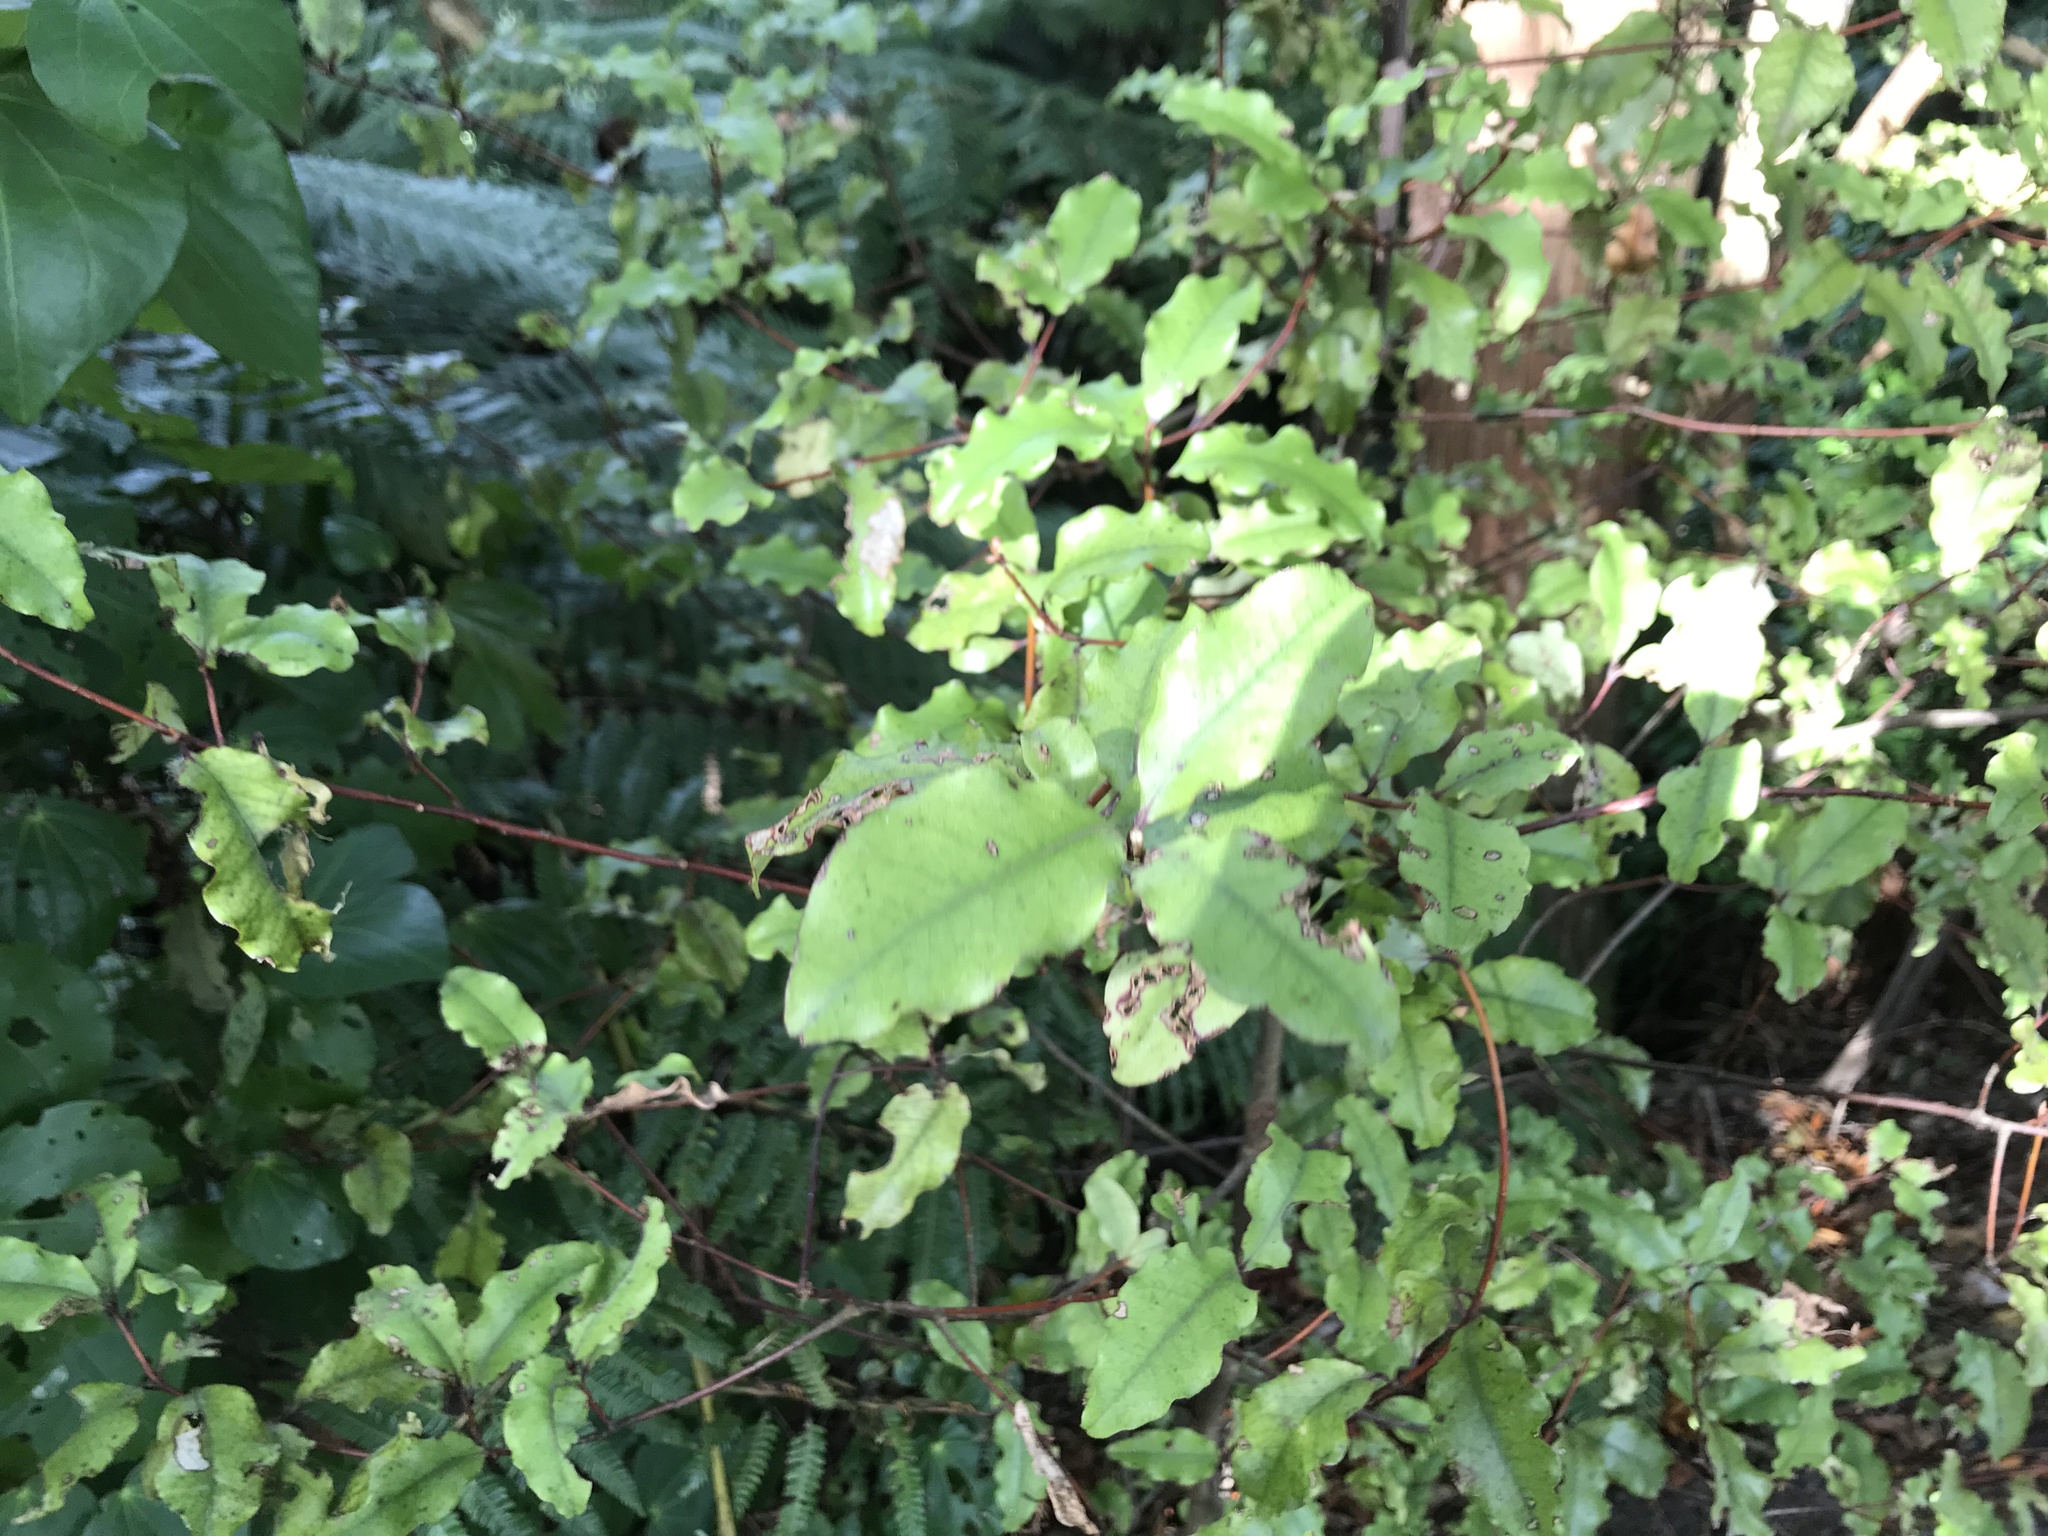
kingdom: Plantae
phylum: Tracheophyta
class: Magnoliopsida
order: Ericales
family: Primulaceae
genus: Myrsine
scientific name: Myrsine australis
